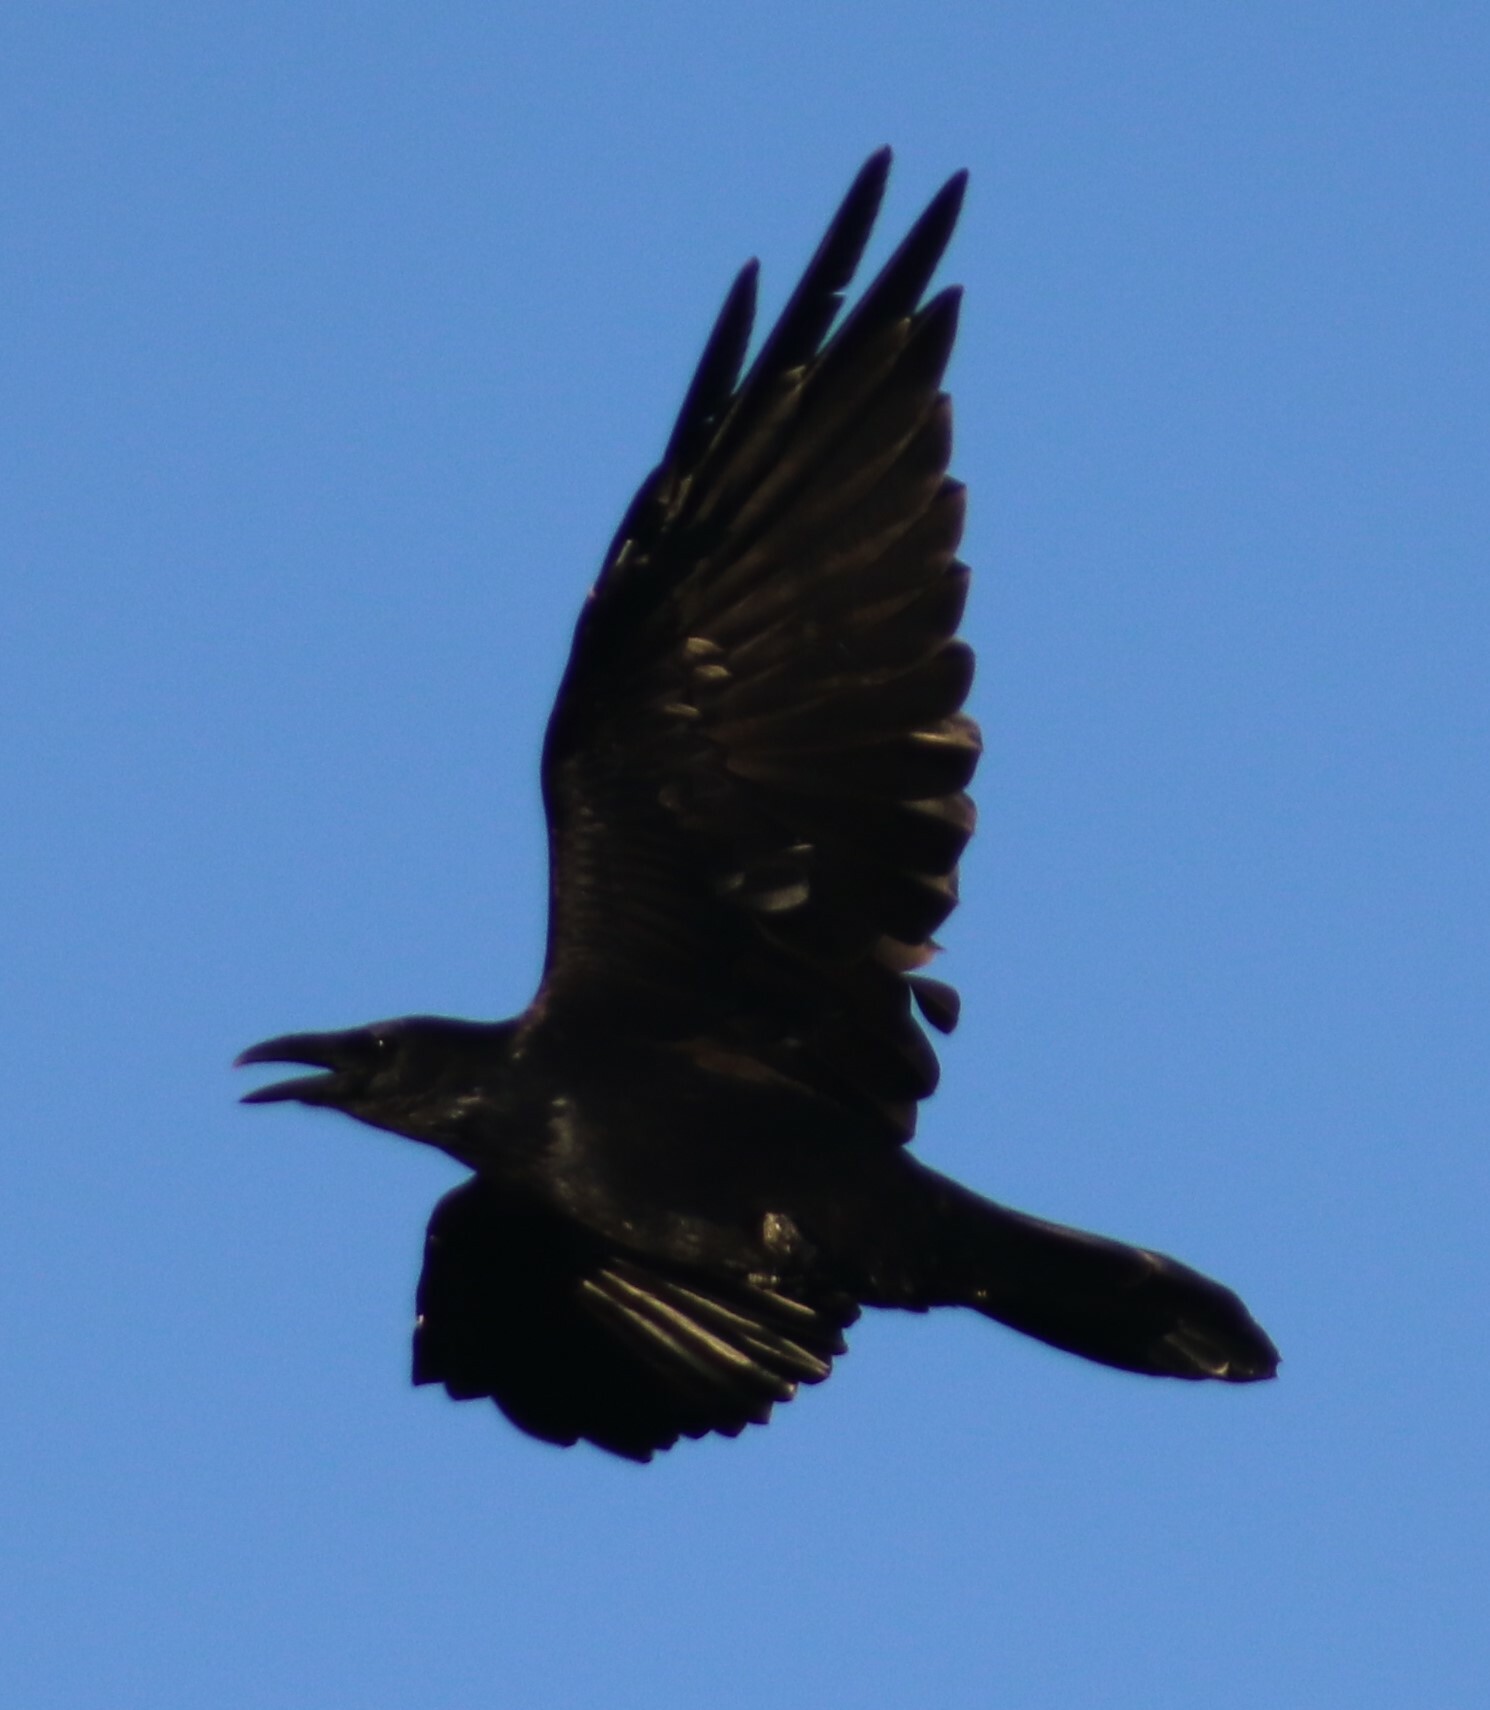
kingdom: Animalia
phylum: Chordata
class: Aves
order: Passeriformes
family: Corvidae
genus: Corvus
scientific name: Corvus corax
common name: Common raven
